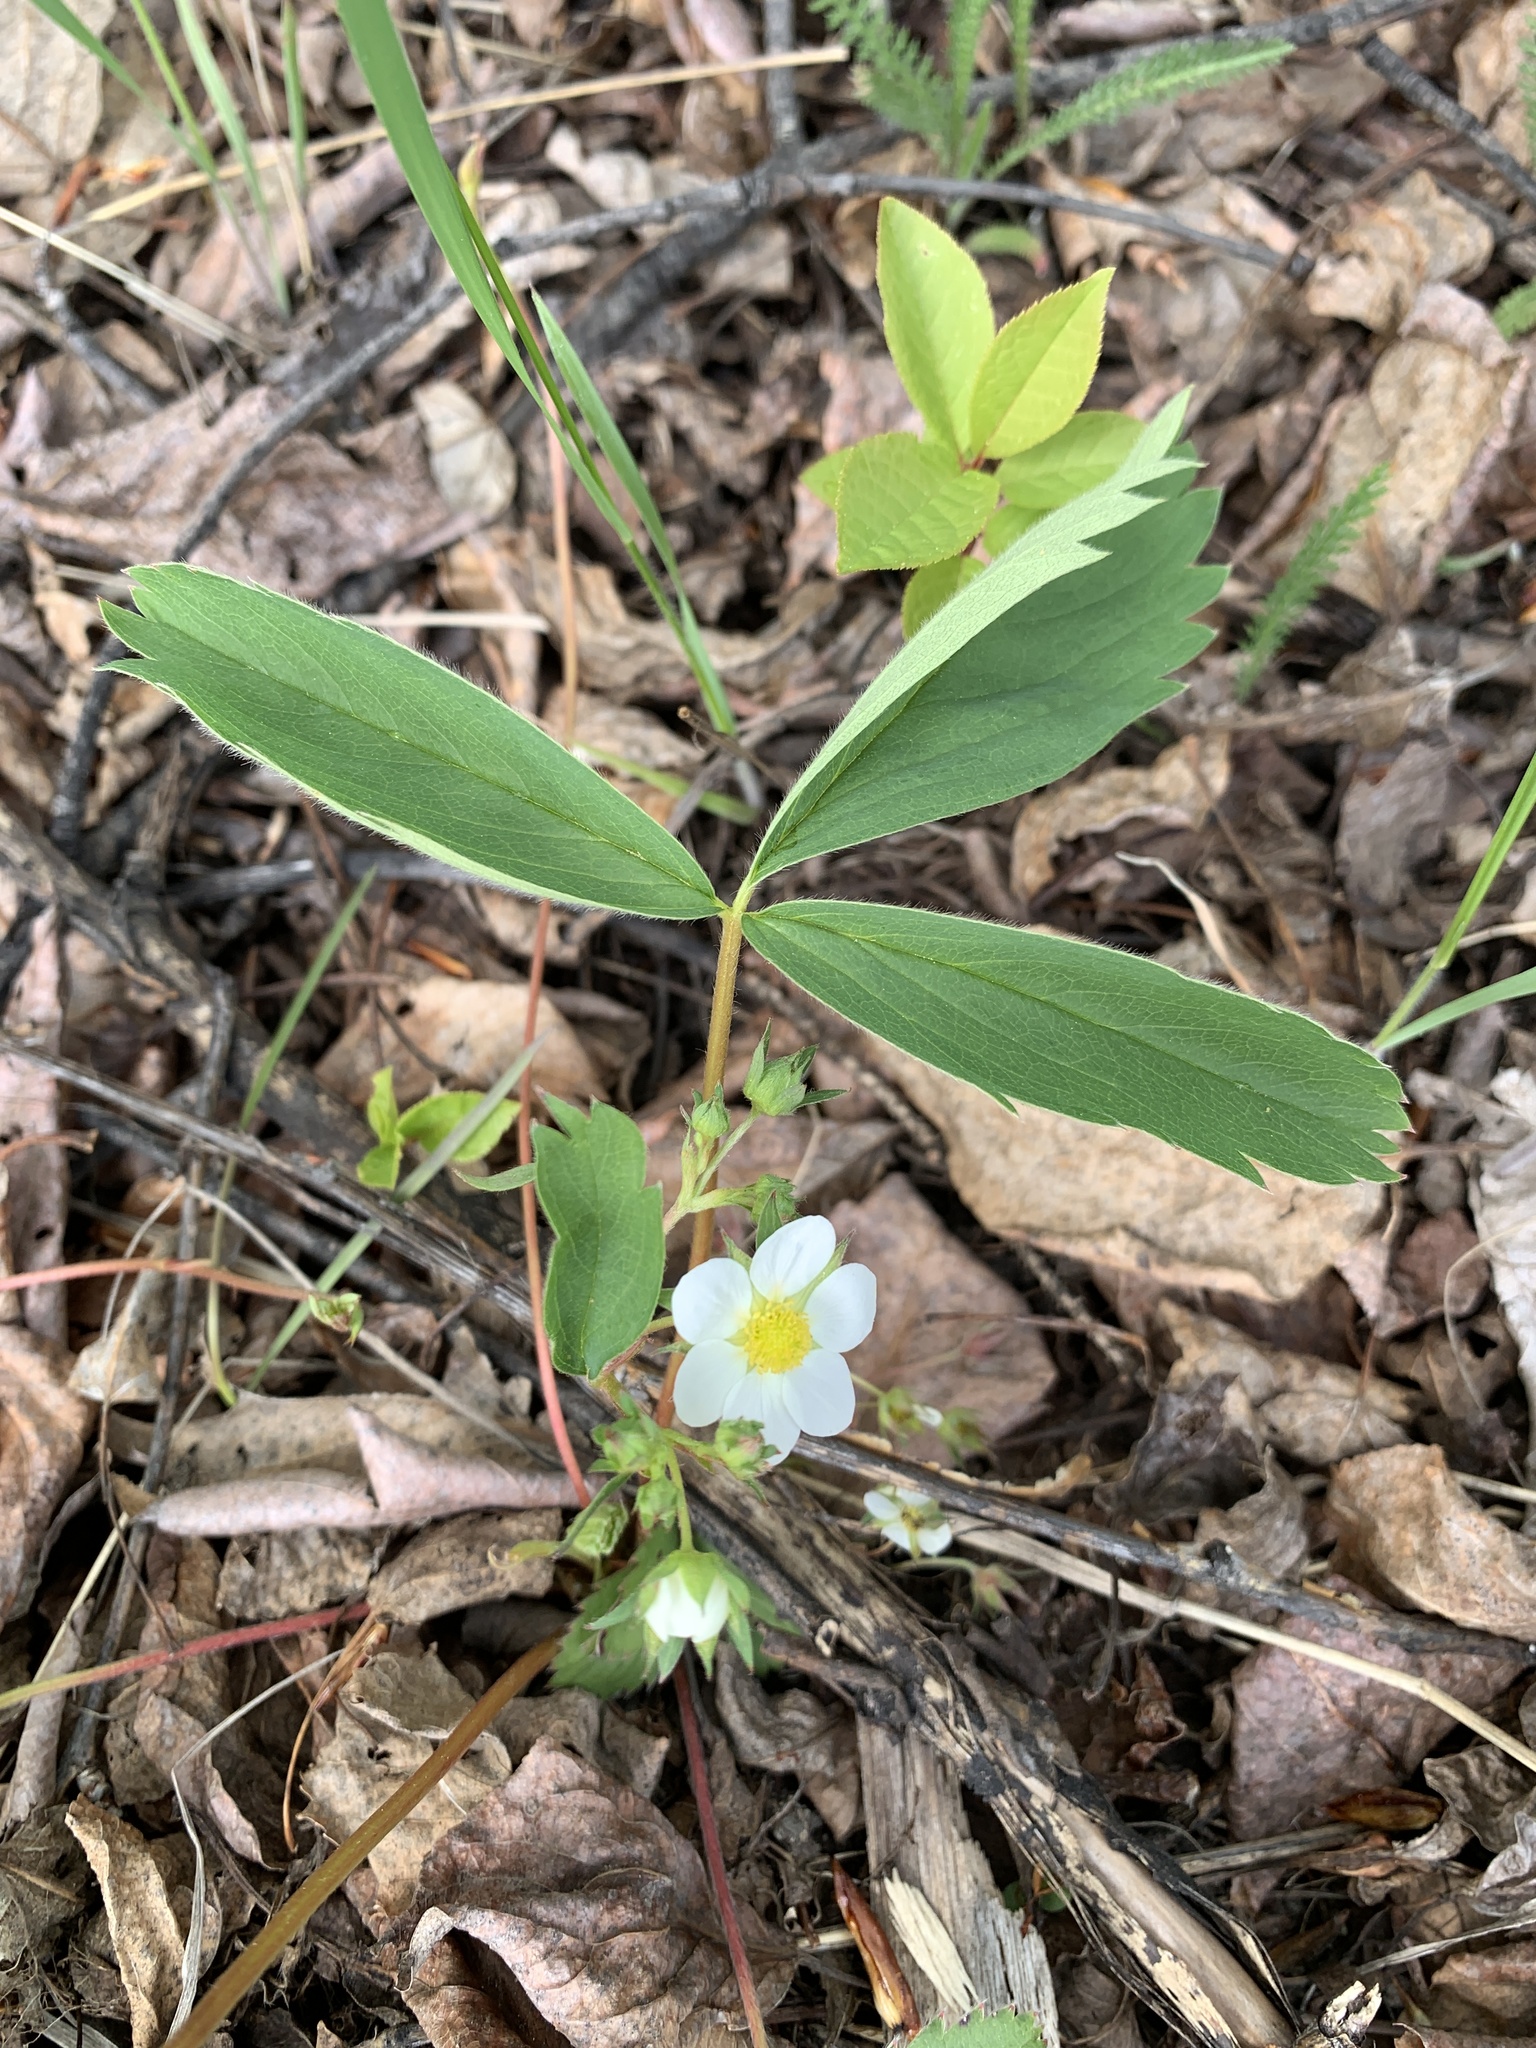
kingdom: Plantae
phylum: Tracheophyta
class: Magnoliopsida
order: Rosales
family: Rosaceae
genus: Fragaria
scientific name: Fragaria virginiana
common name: Thickleaved wild strawberry
